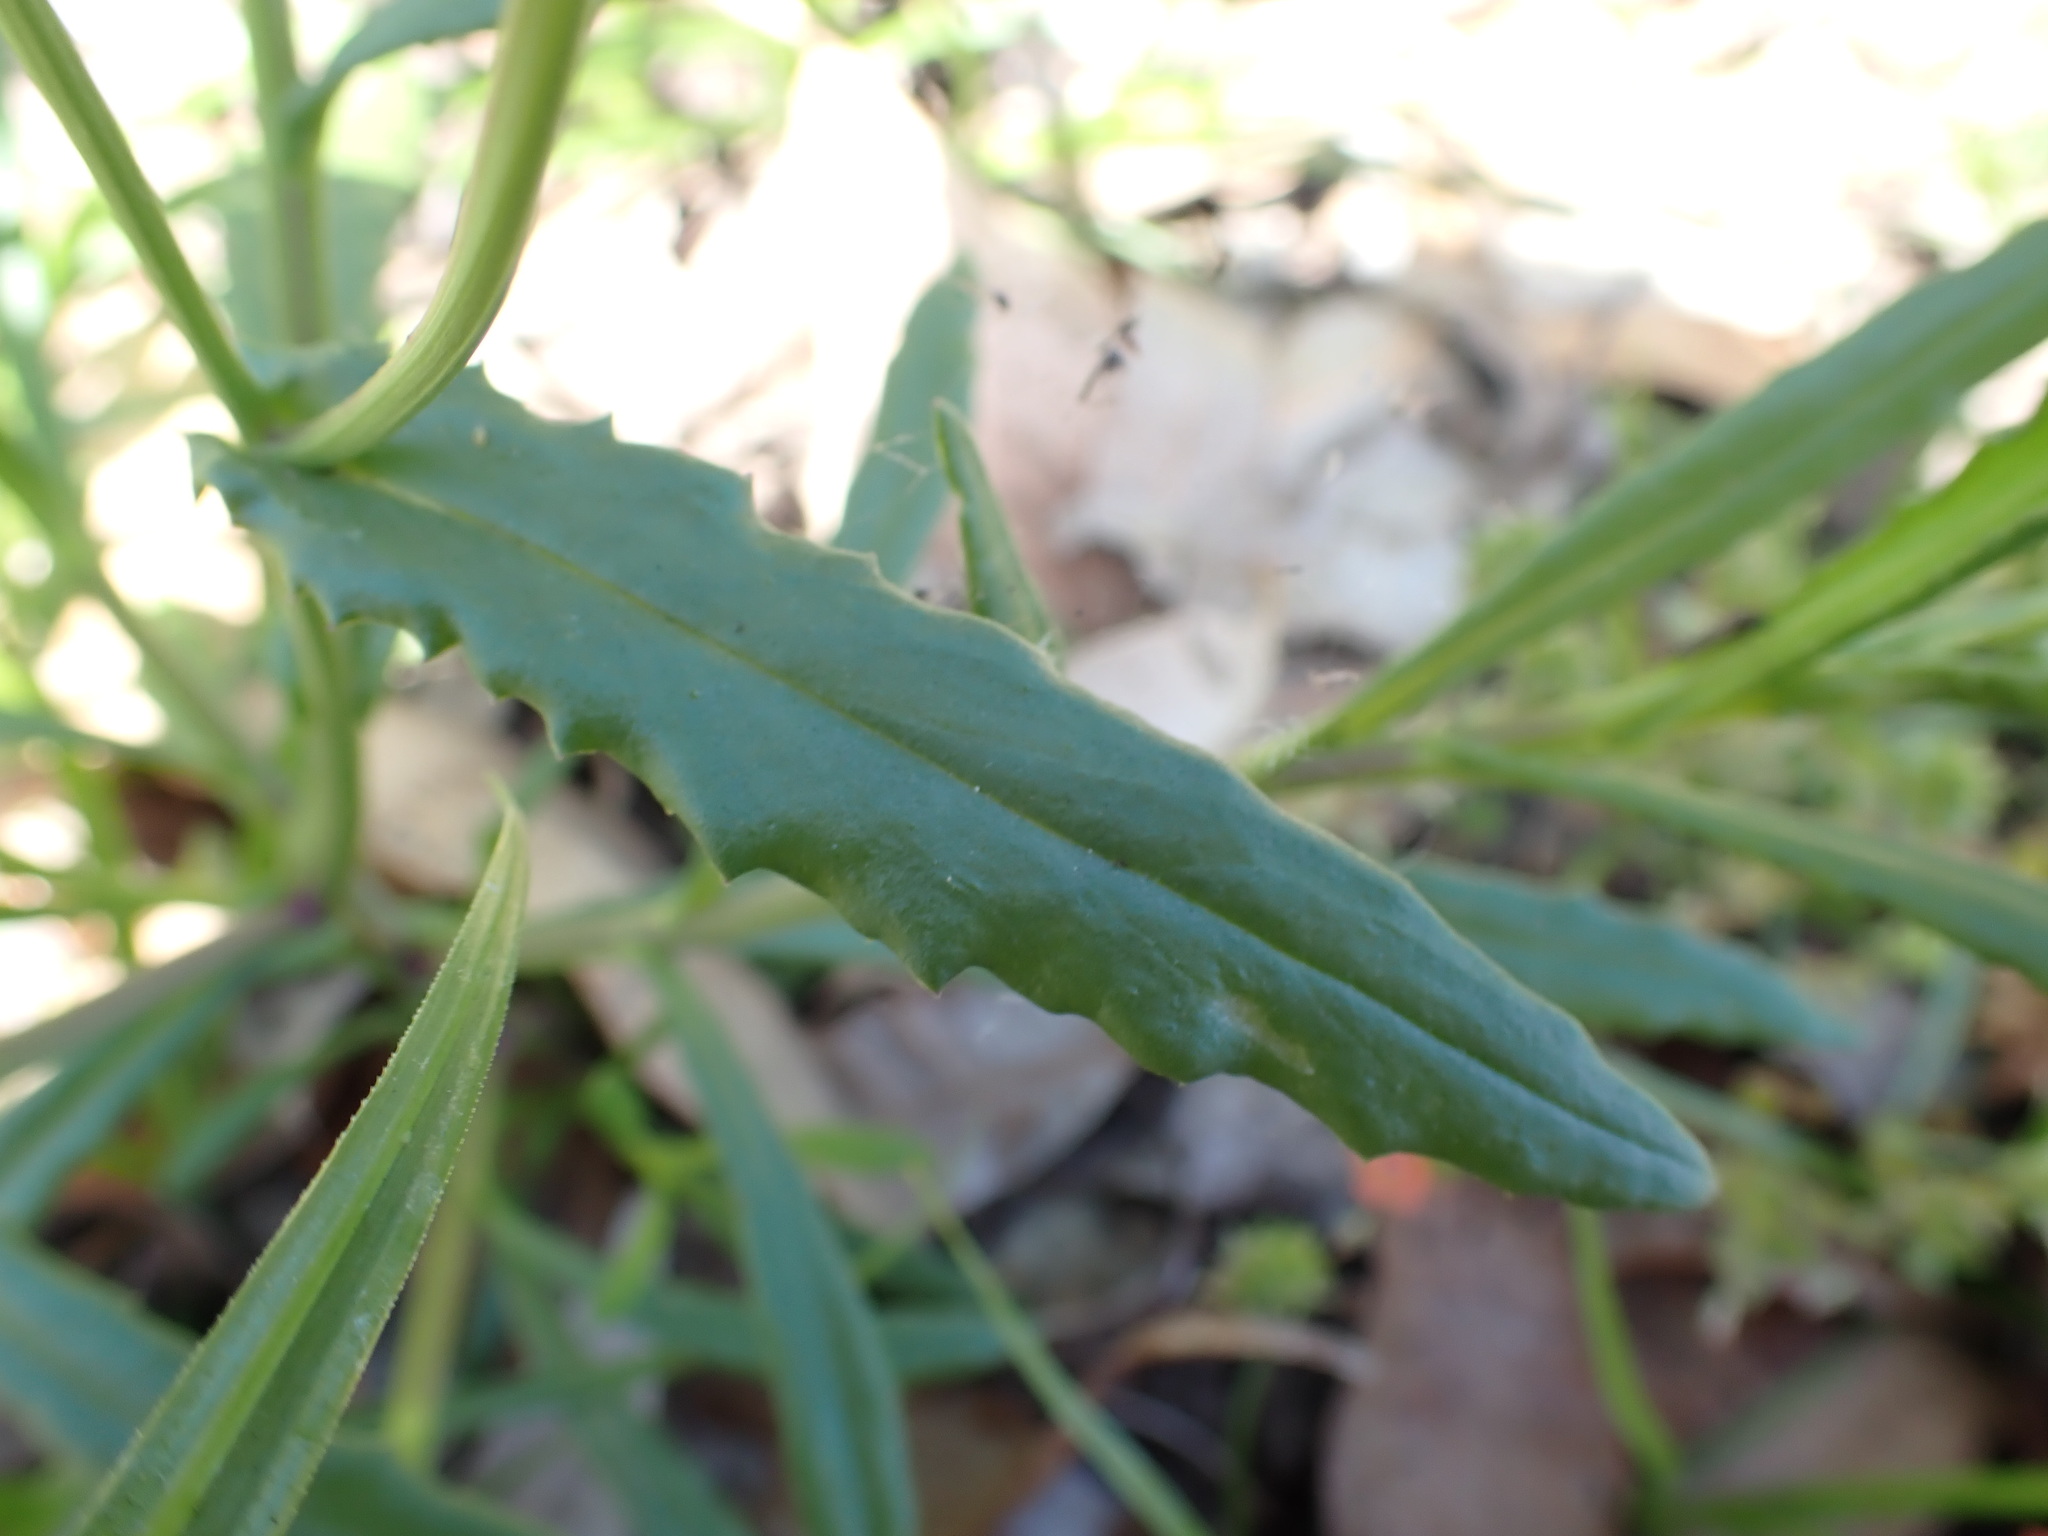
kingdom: Plantae
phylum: Tracheophyta
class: Magnoliopsida
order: Asterales
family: Asteraceae
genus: Senecio
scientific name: Senecio skirrhodon
